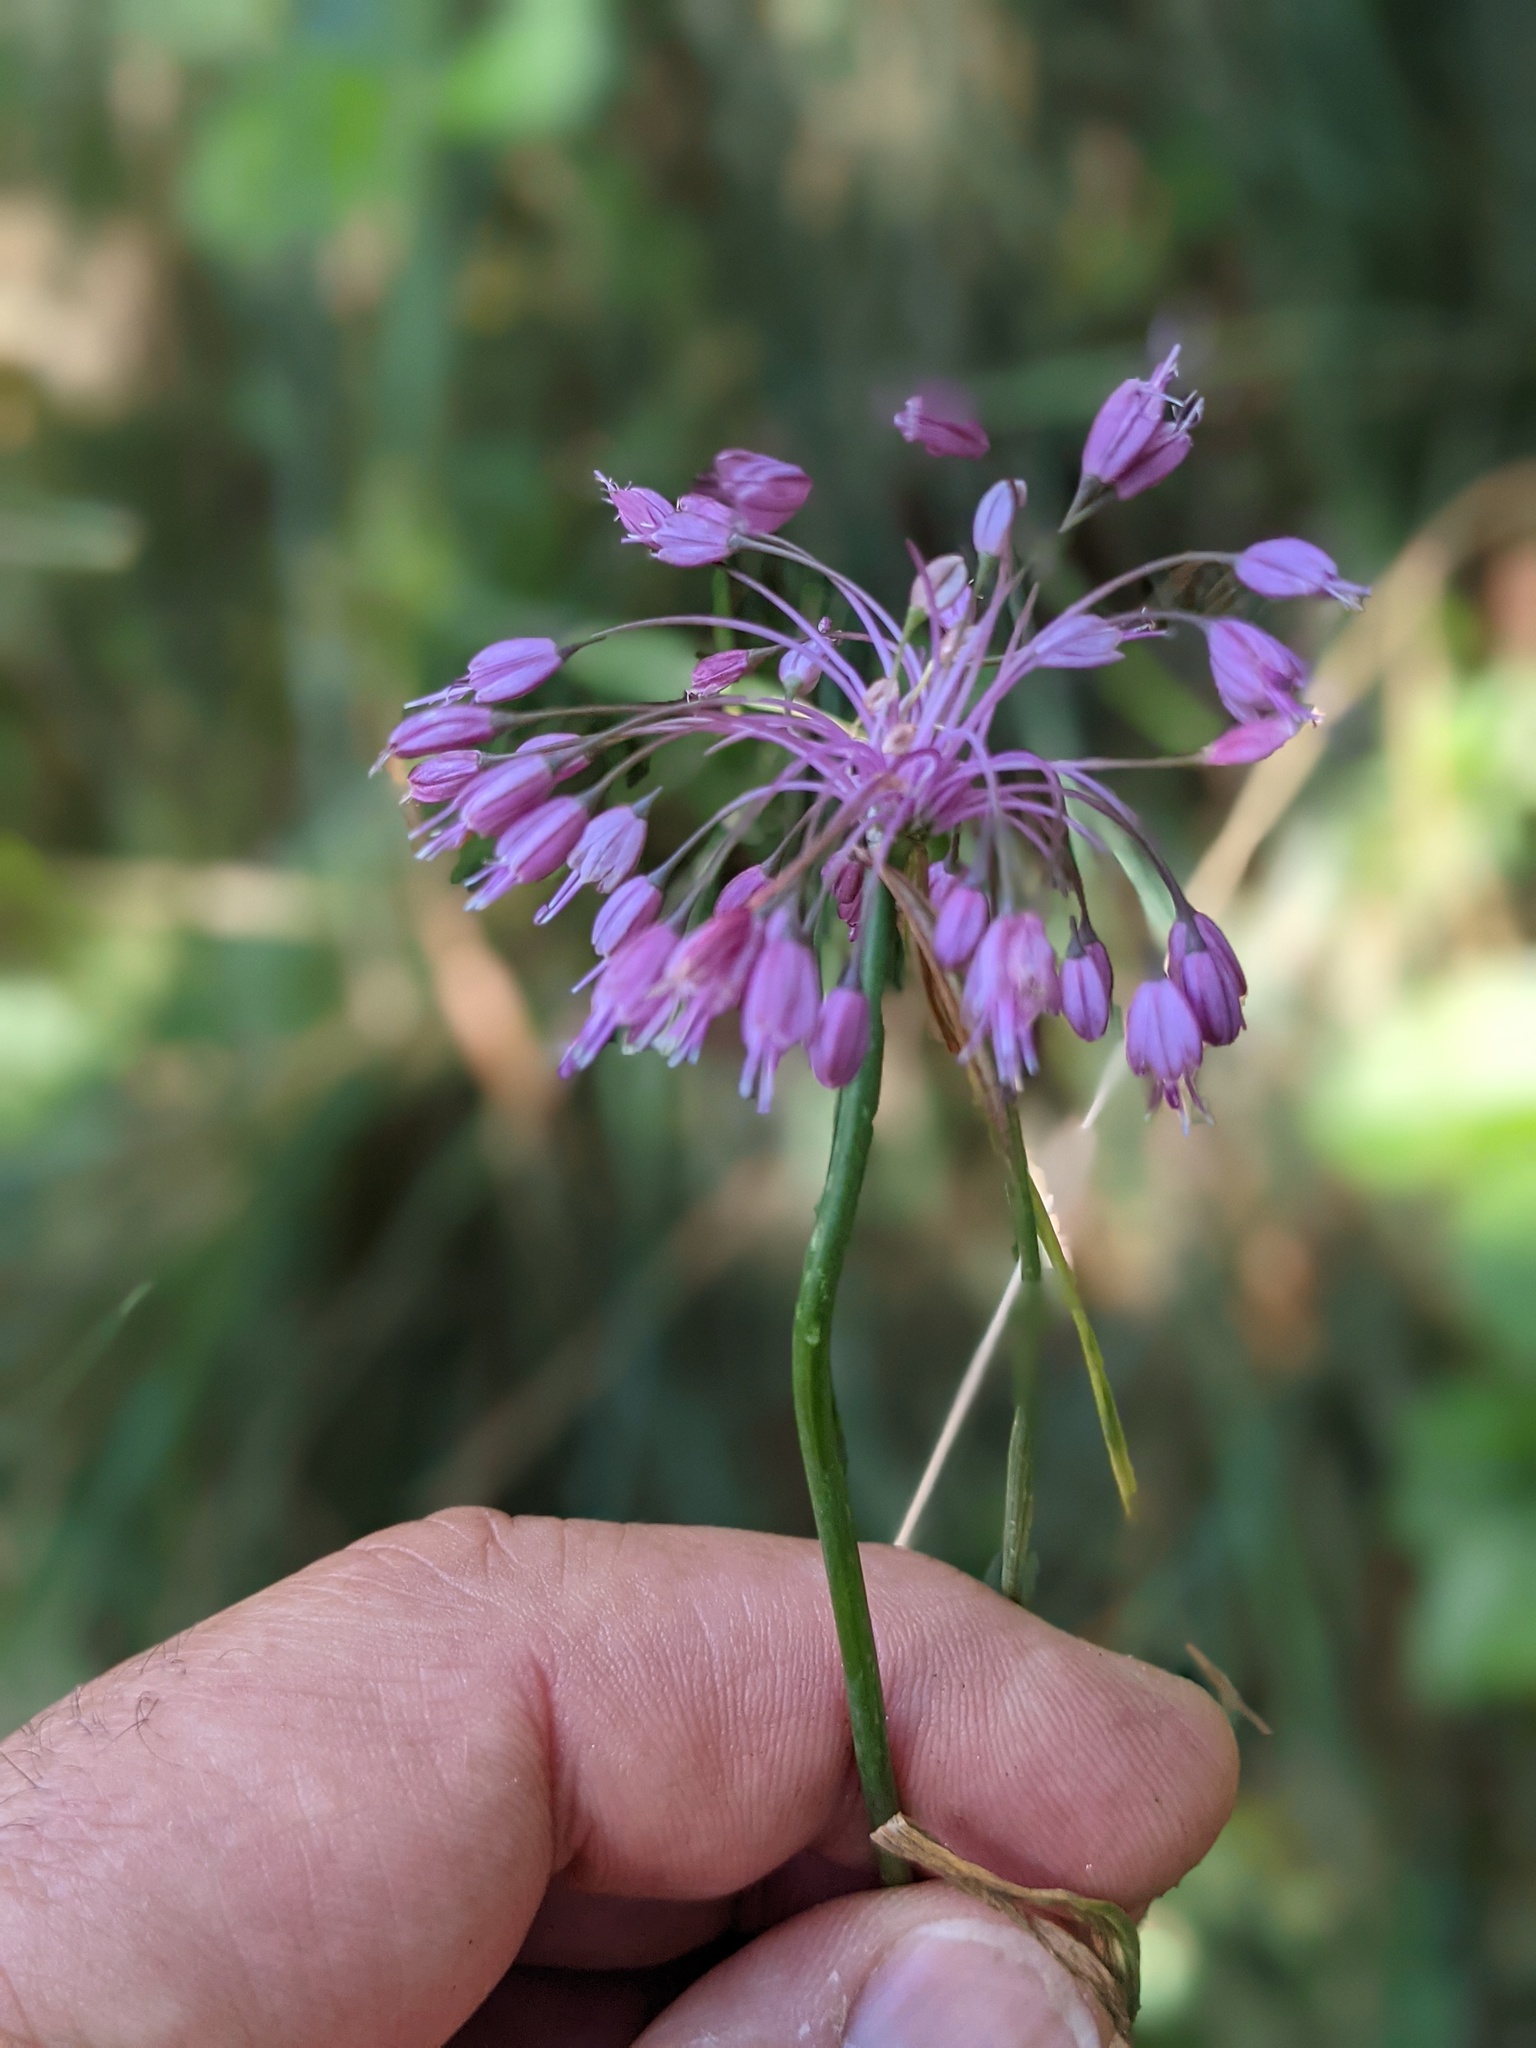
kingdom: Plantae
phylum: Tracheophyta
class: Liliopsida
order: Asparagales
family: Amaryllidaceae
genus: Allium
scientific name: Allium coloratum
